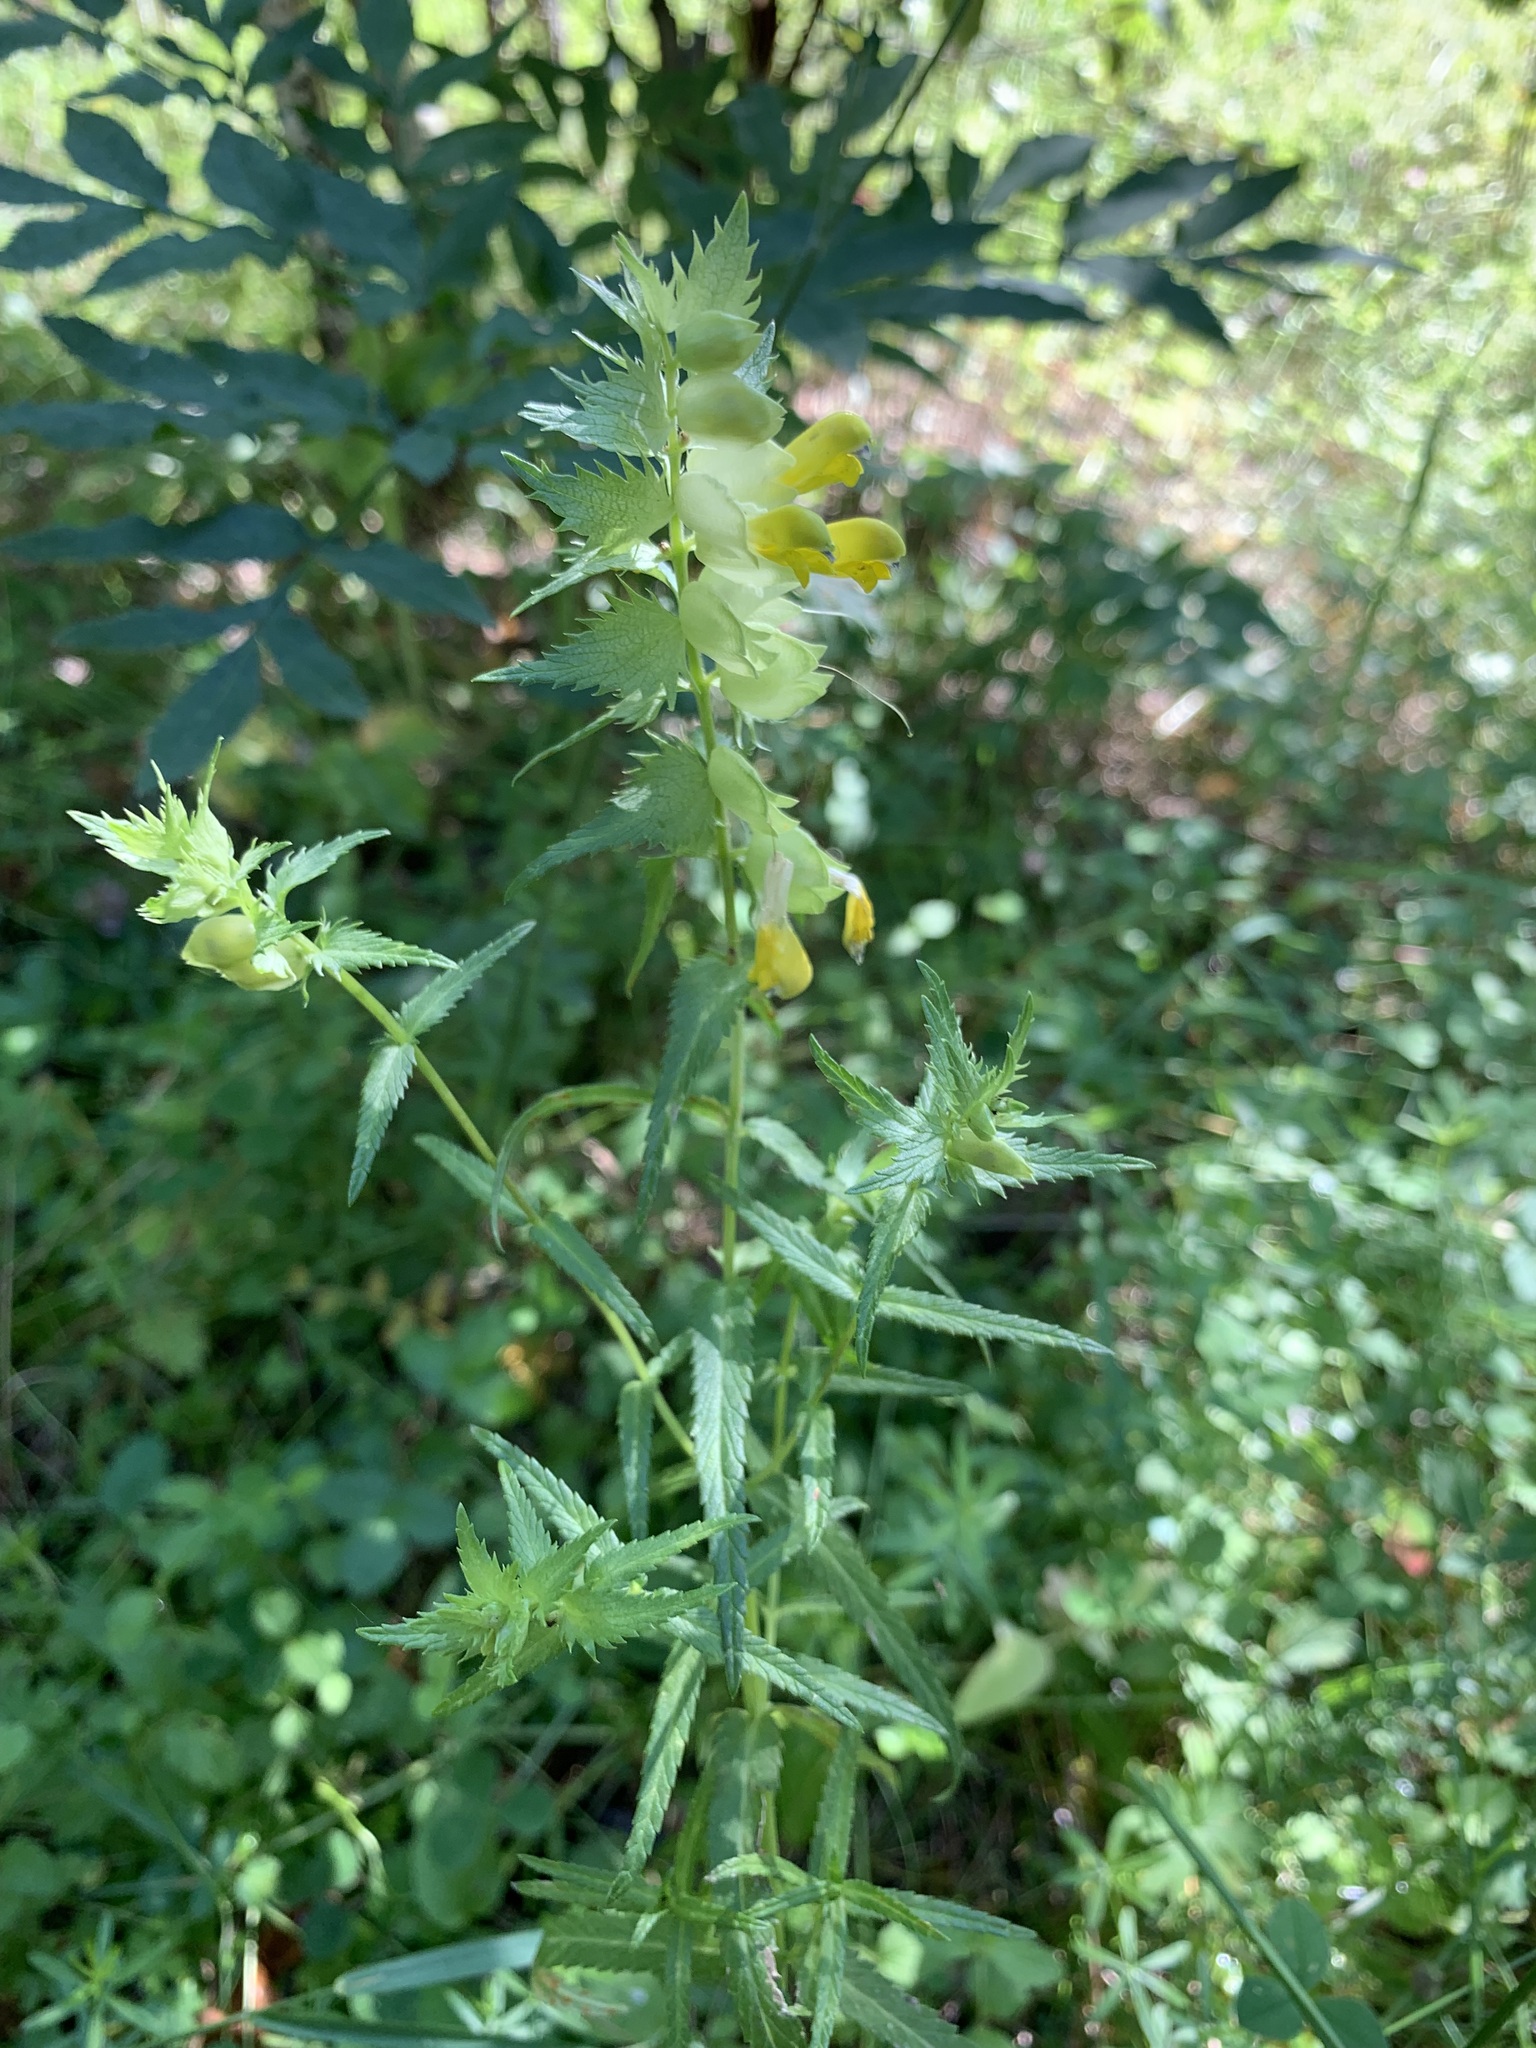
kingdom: Plantae
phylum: Tracheophyta
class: Magnoliopsida
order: Lamiales
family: Orobanchaceae
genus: Rhinanthus
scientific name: Rhinanthus serotinus
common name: Late-flowering yellow rattle
